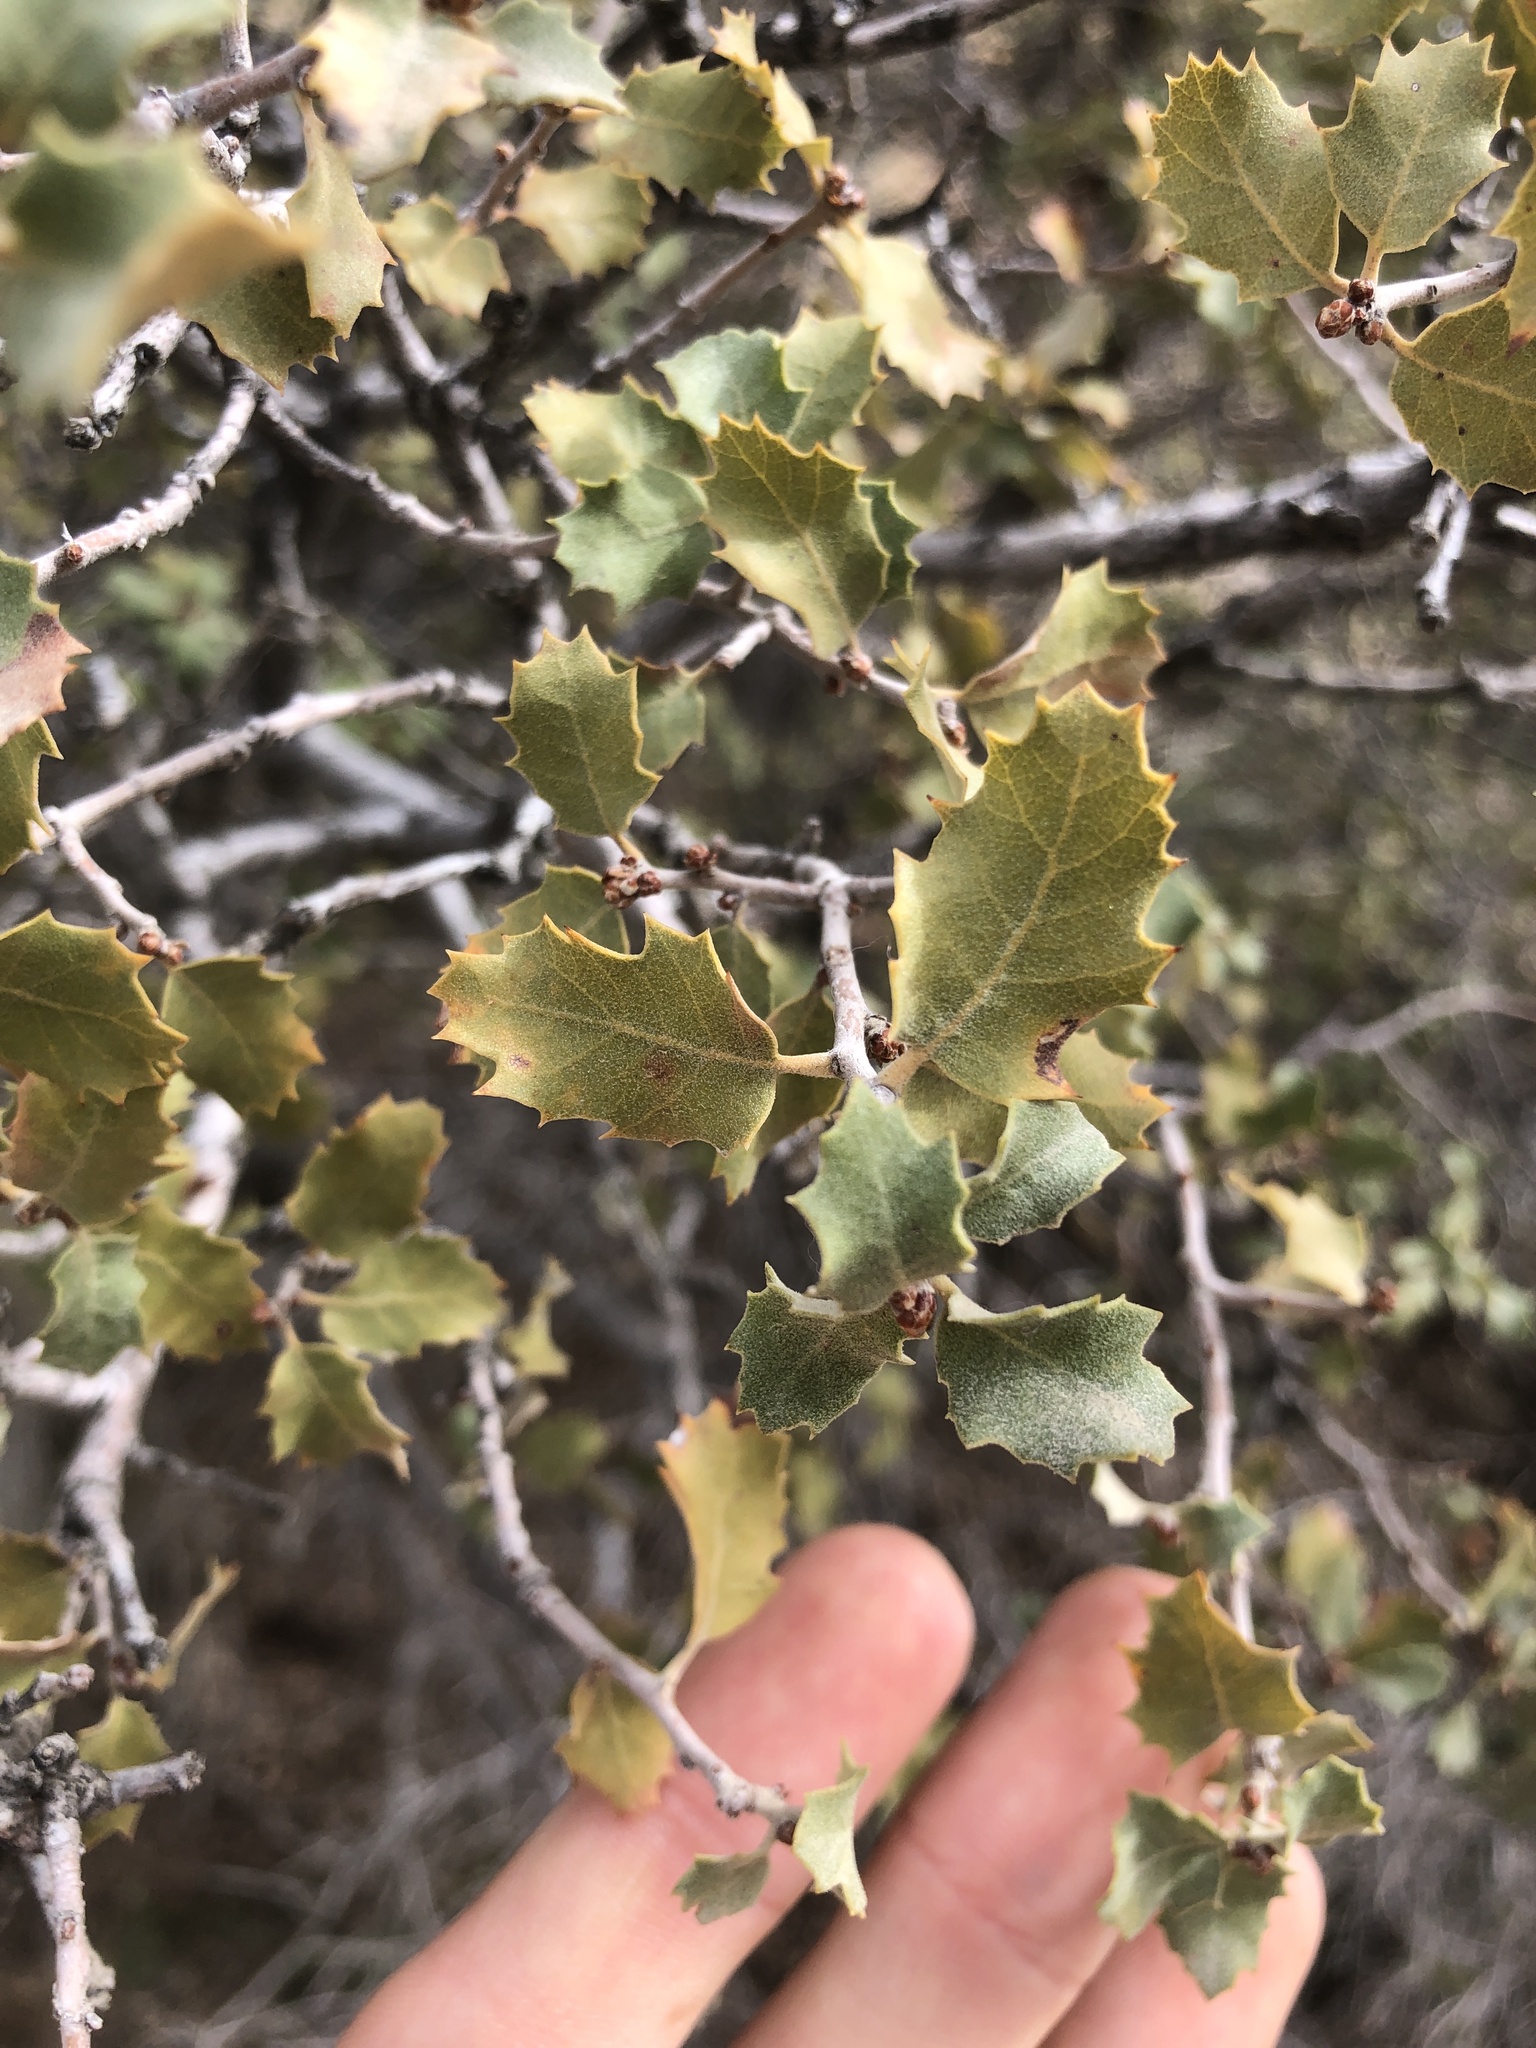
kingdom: Plantae
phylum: Tracheophyta
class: Magnoliopsida
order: Fagales
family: Fagaceae
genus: Quercus
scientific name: Quercus cornelius-mulleri
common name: Muller oak
